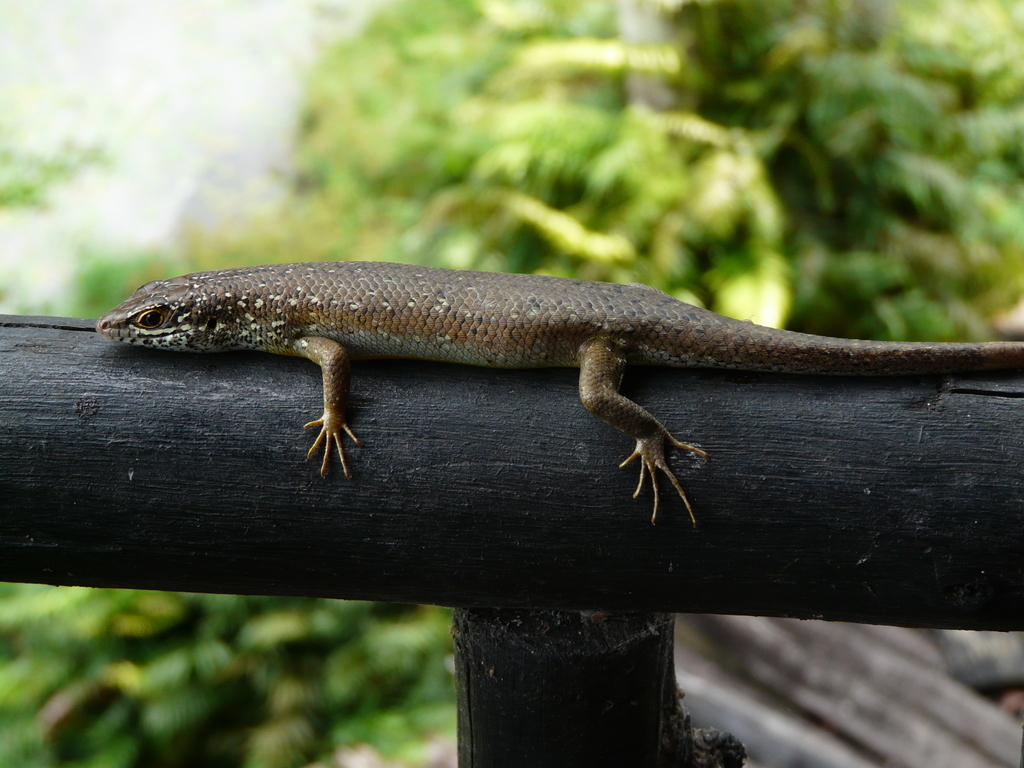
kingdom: Animalia
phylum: Chordata
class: Squamata
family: Scincidae
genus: Trachylepis
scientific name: Trachylepis maculilabris
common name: Speckle-lipped mabuya
